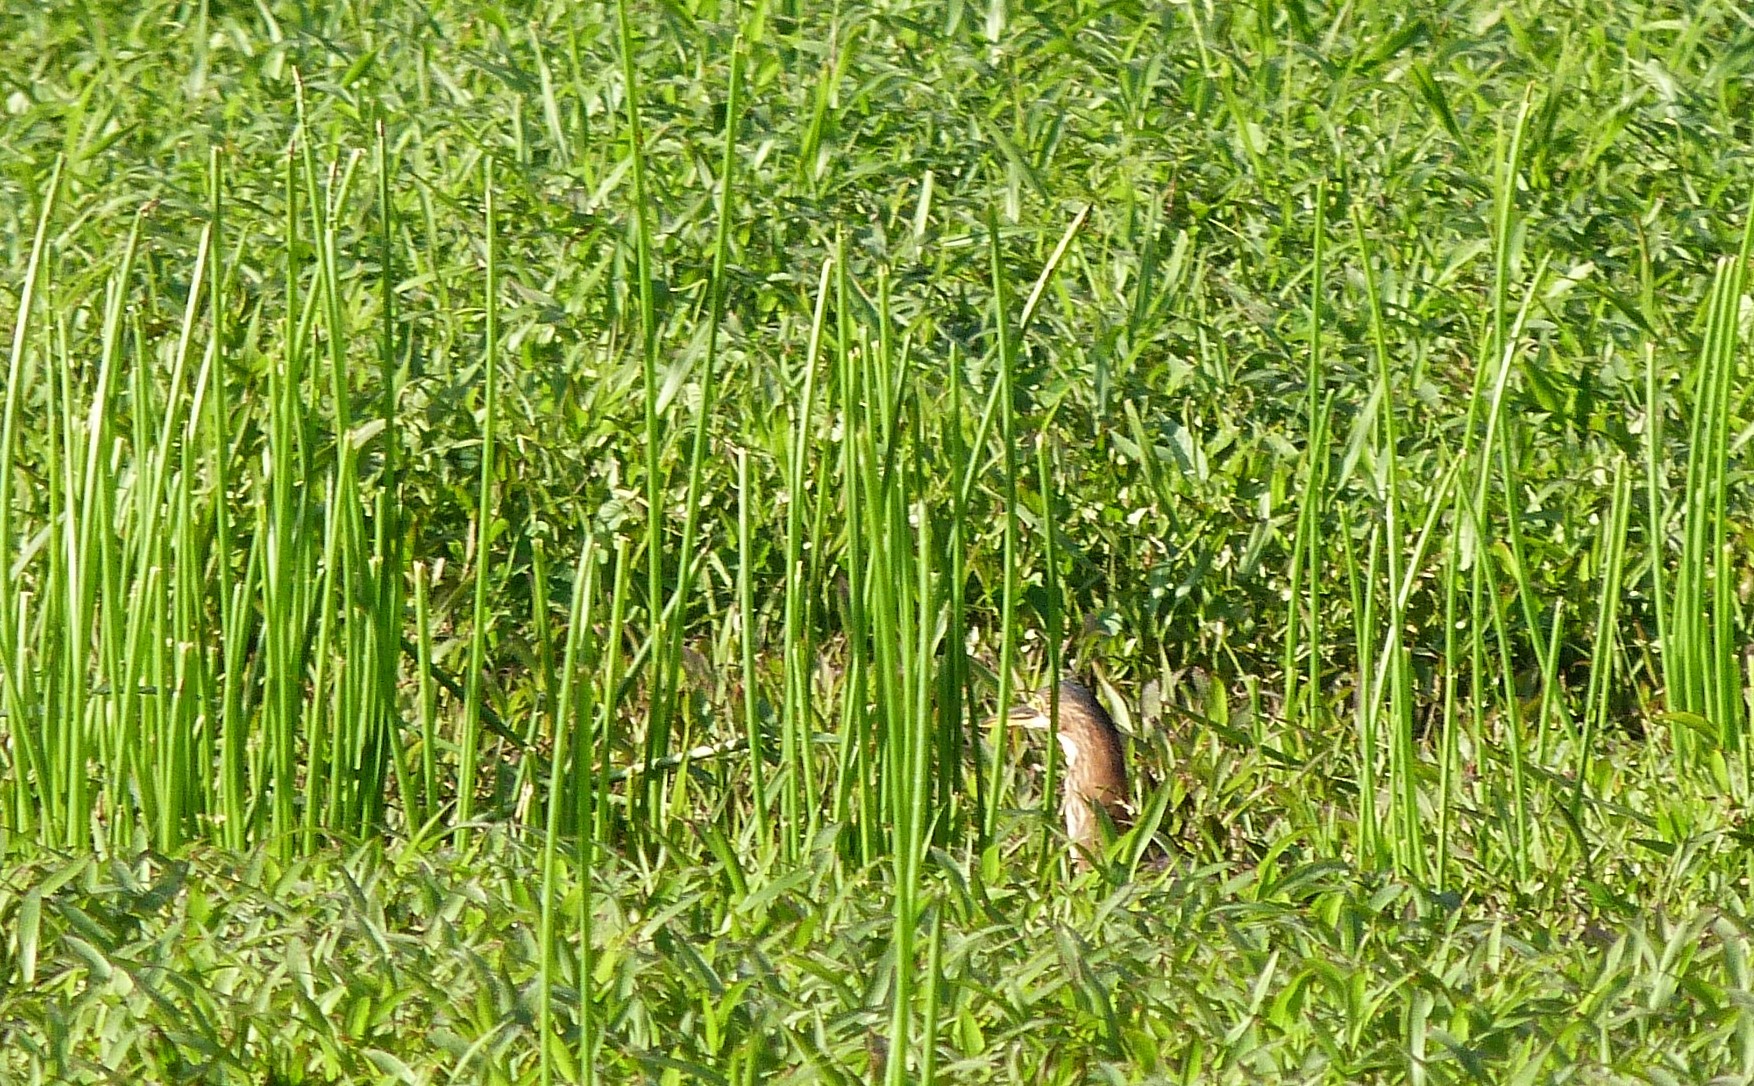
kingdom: Animalia
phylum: Chordata
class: Aves
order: Pelecaniformes
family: Ardeidae
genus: Butorides
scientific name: Butorides striata
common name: Striated heron
